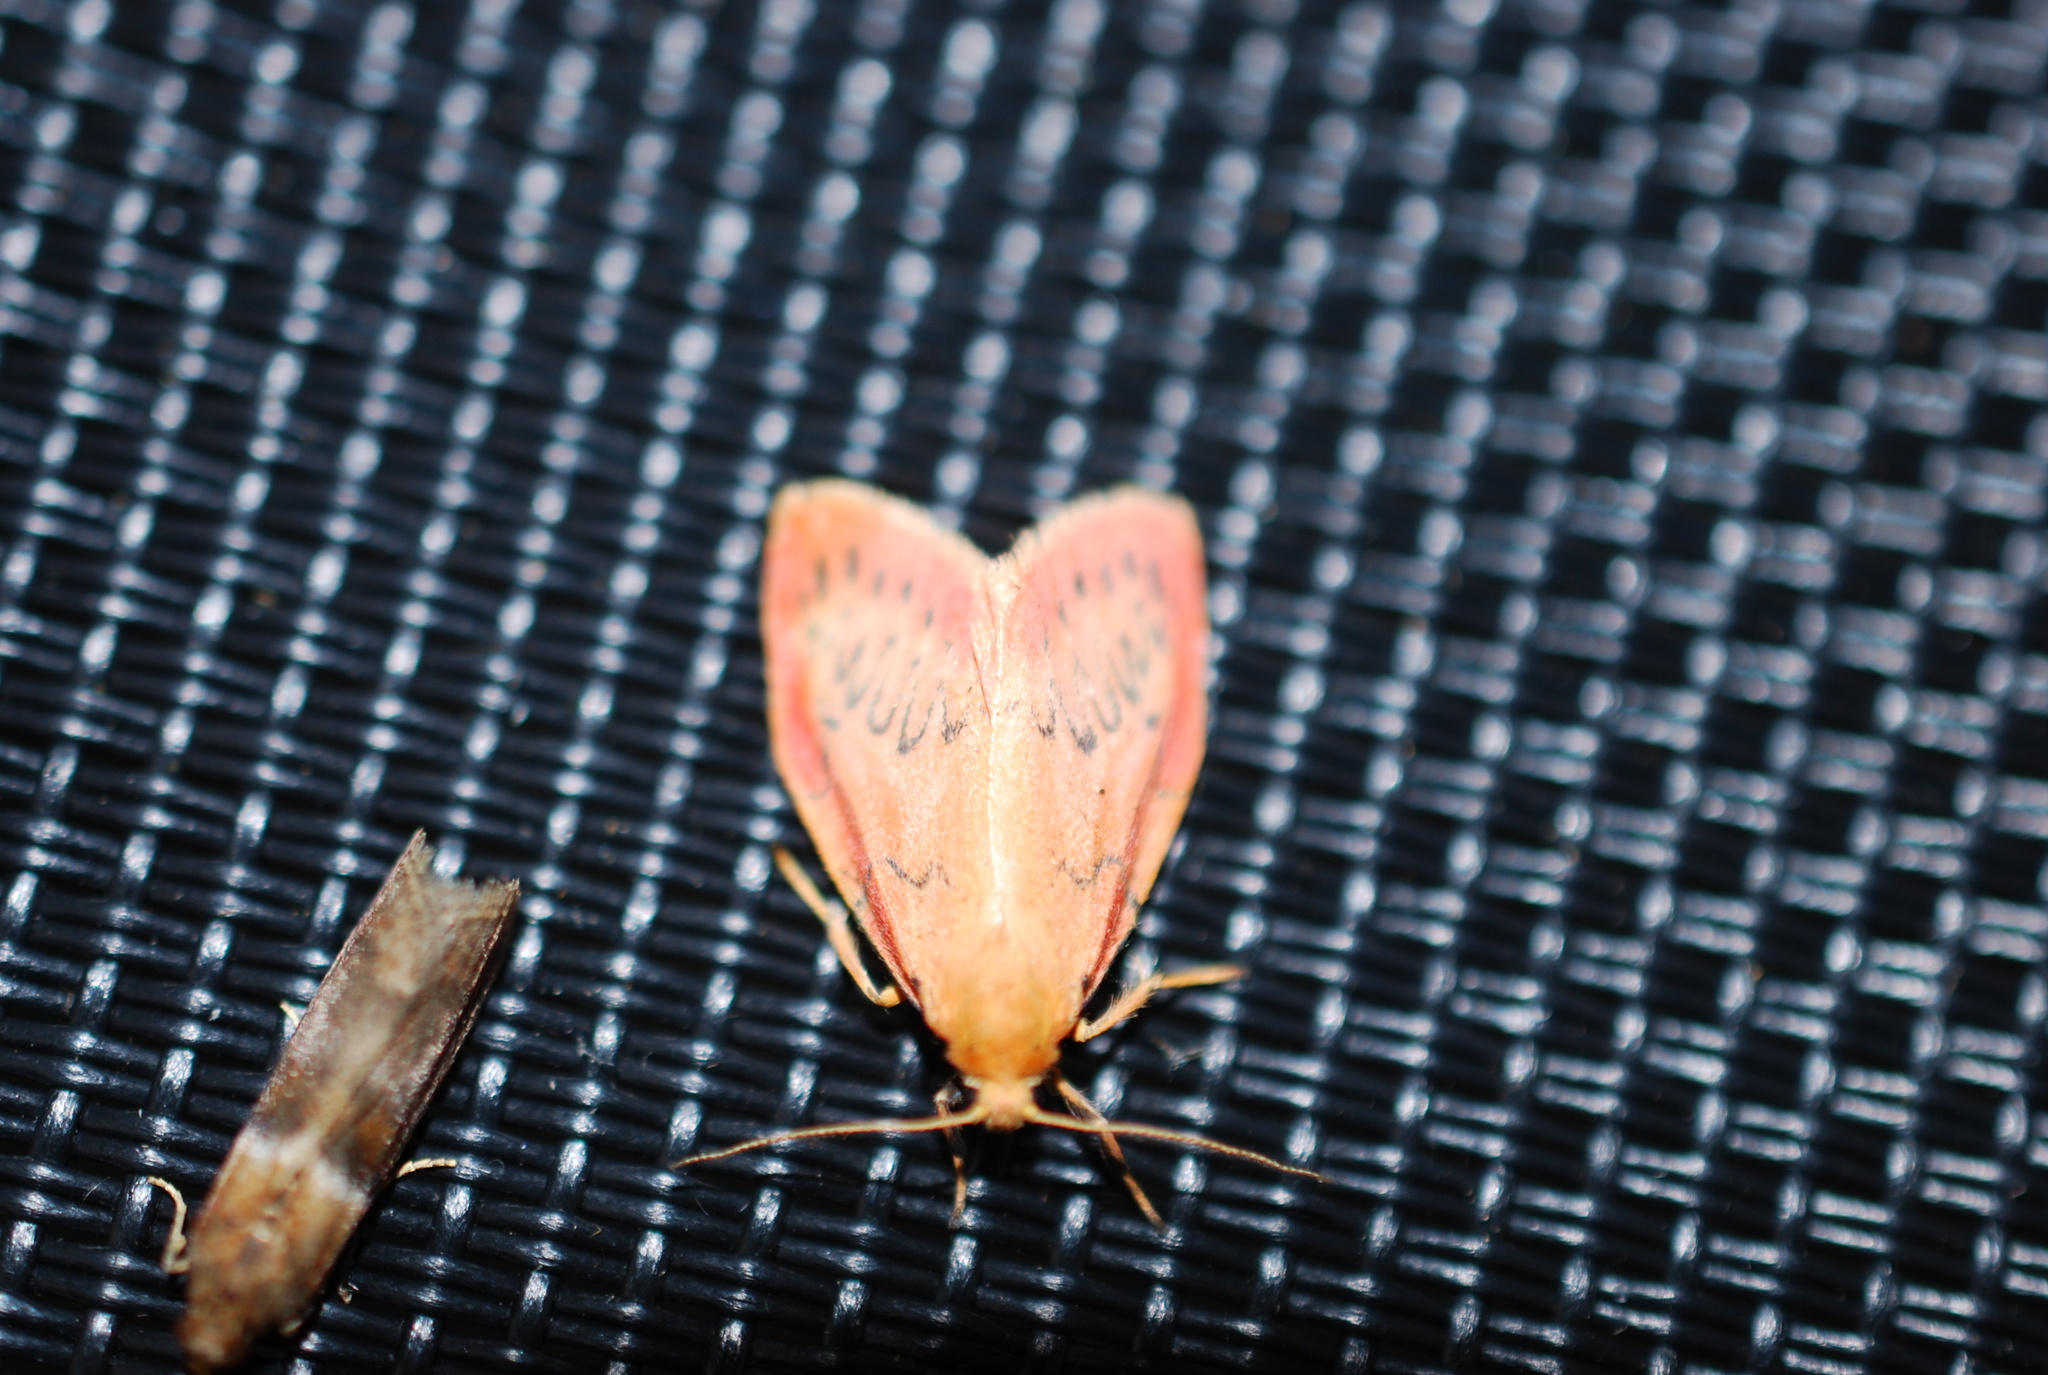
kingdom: Animalia
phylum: Arthropoda
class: Insecta
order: Lepidoptera
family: Erebidae
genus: Miltochrista
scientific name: Miltochrista miniata
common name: Rosy footman
